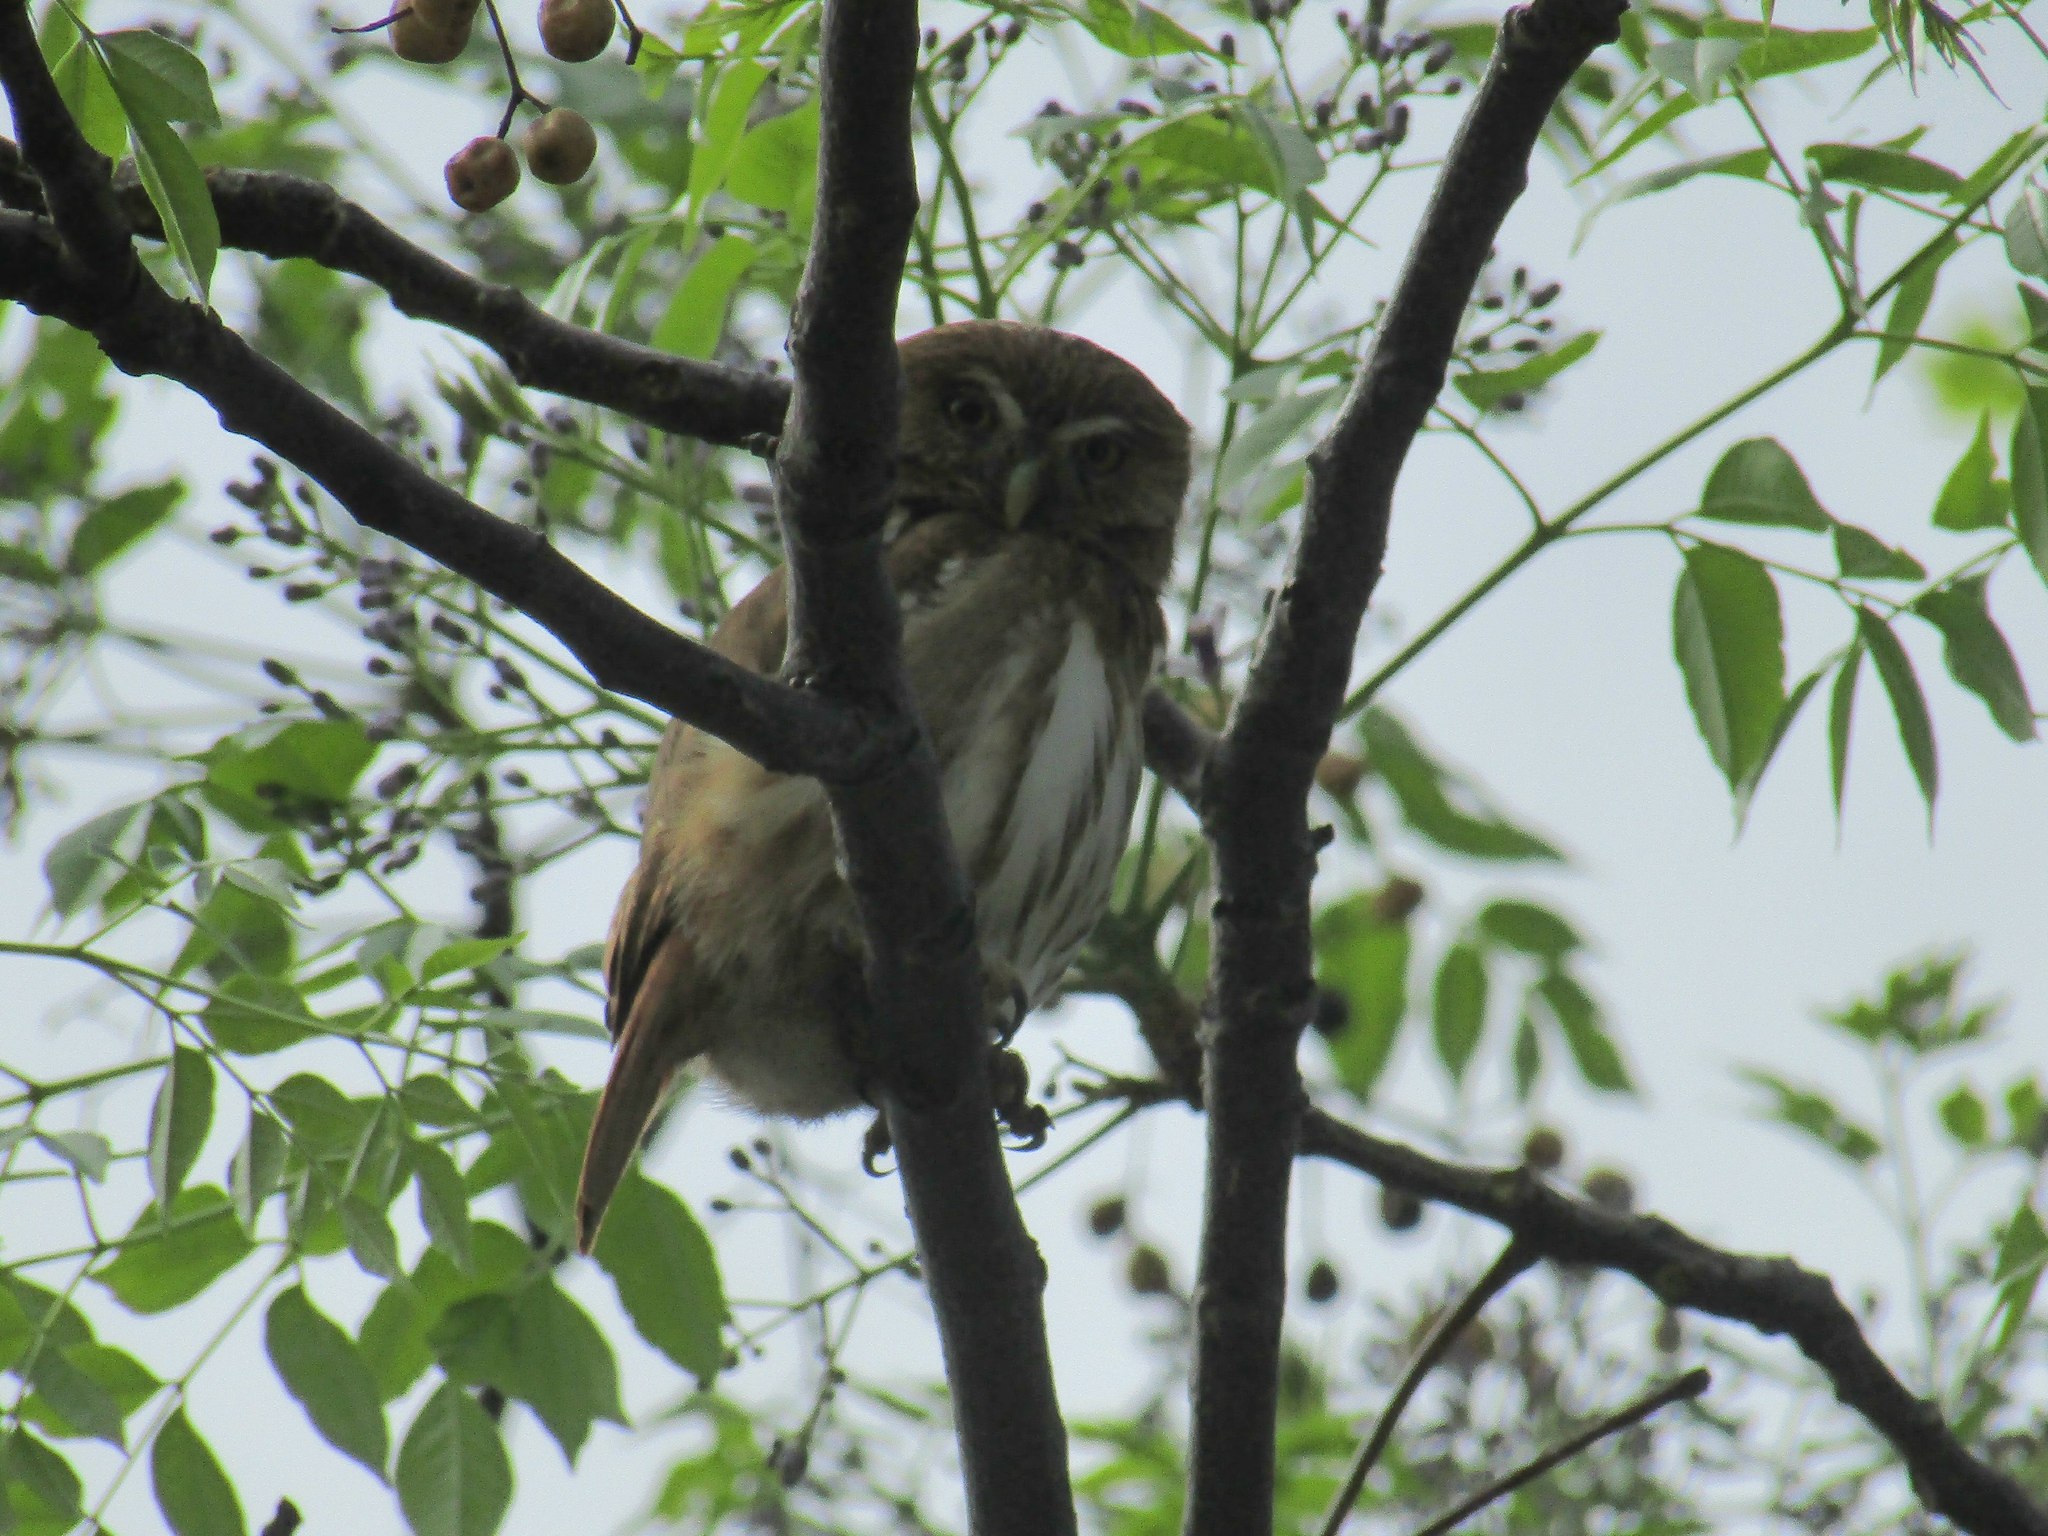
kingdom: Animalia
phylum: Chordata
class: Aves
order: Strigiformes
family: Strigidae
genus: Glaucidium
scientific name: Glaucidium brasilianum
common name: Ferruginous pygmy-owl
